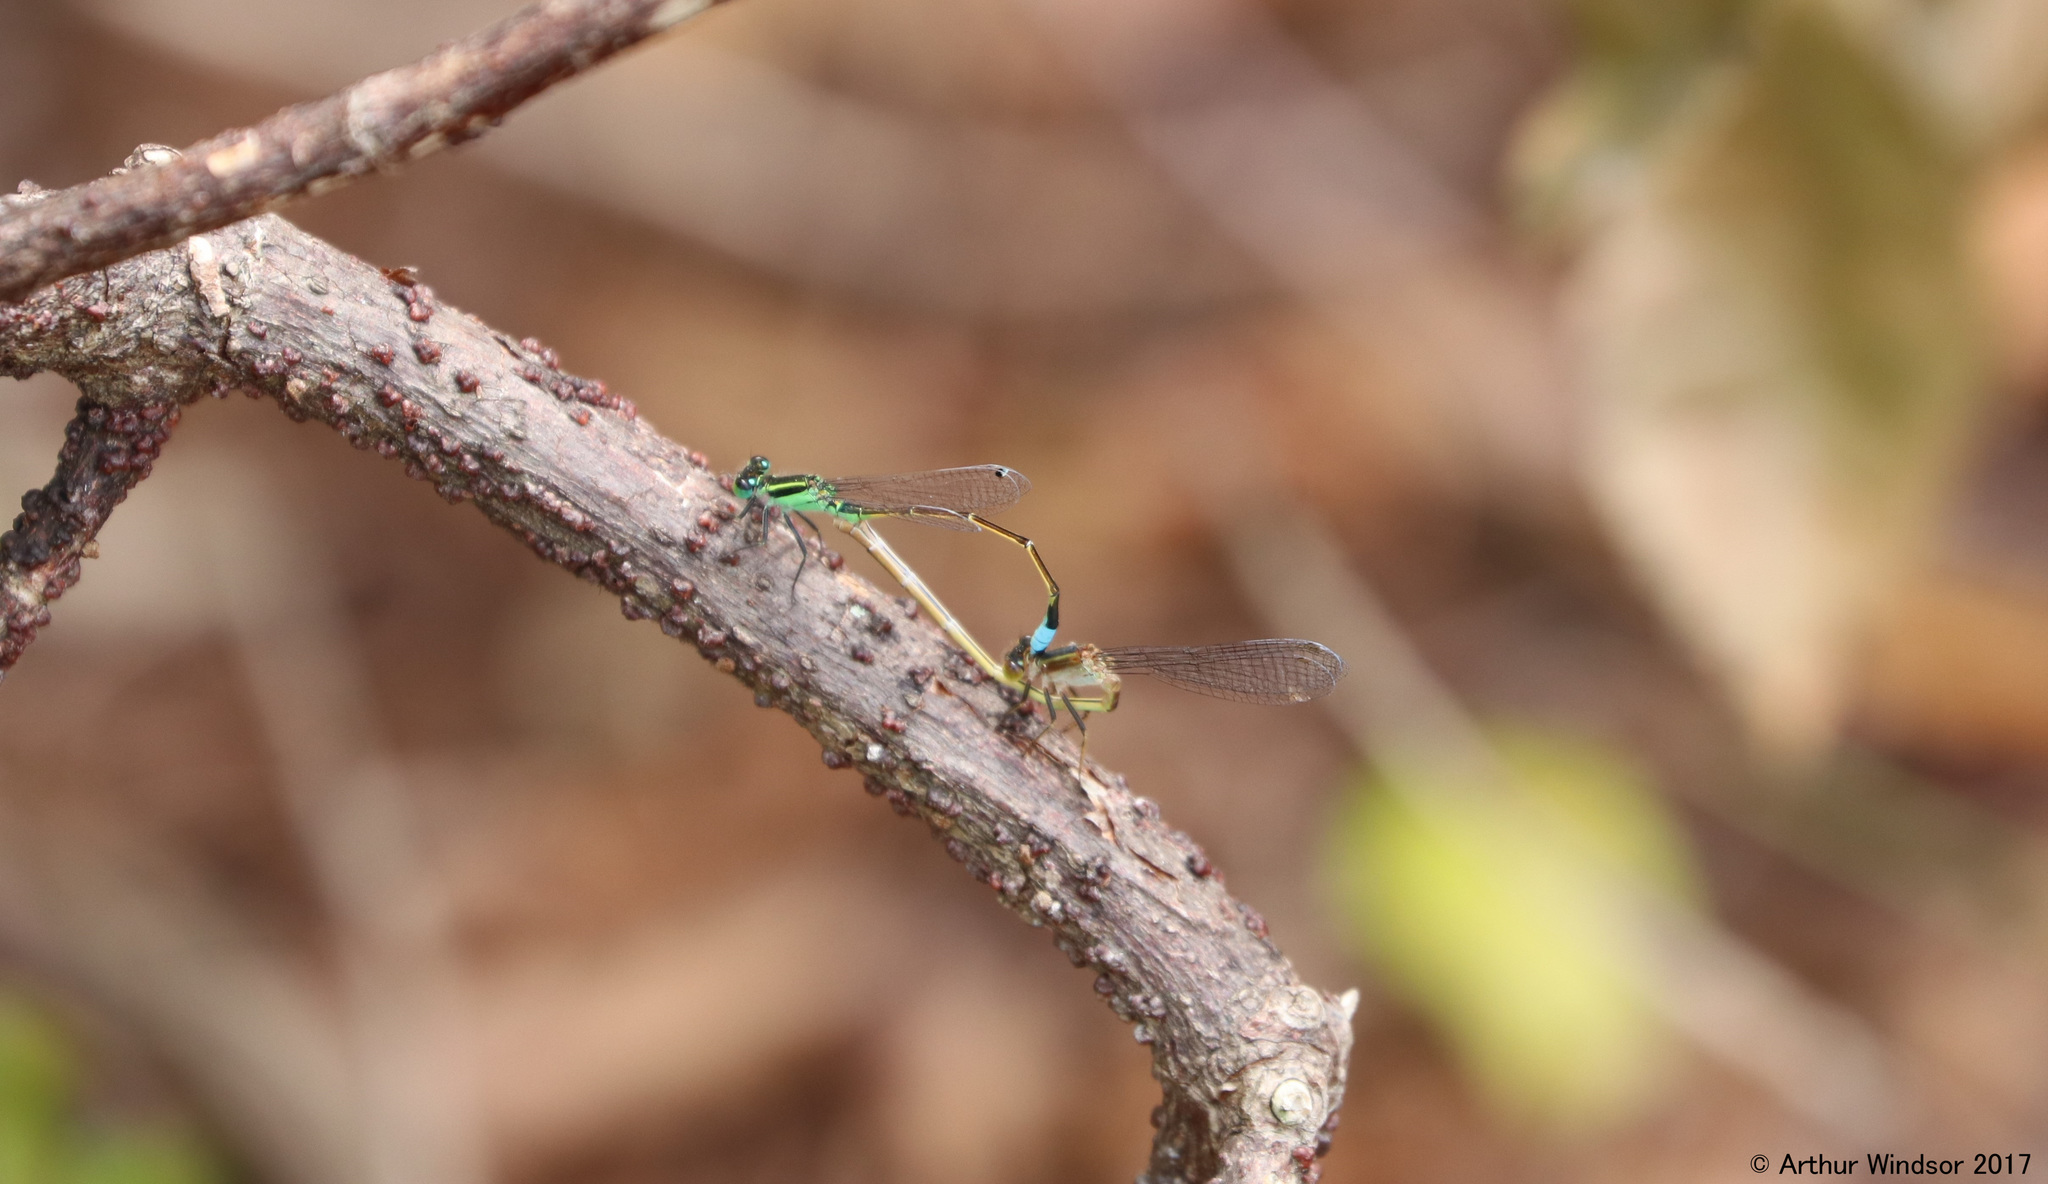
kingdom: Animalia
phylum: Arthropoda
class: Insecta
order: Odonata
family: Coenagrionidae
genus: Ischnura
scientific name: Ischnura ramburii
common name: Rambur's forktail
